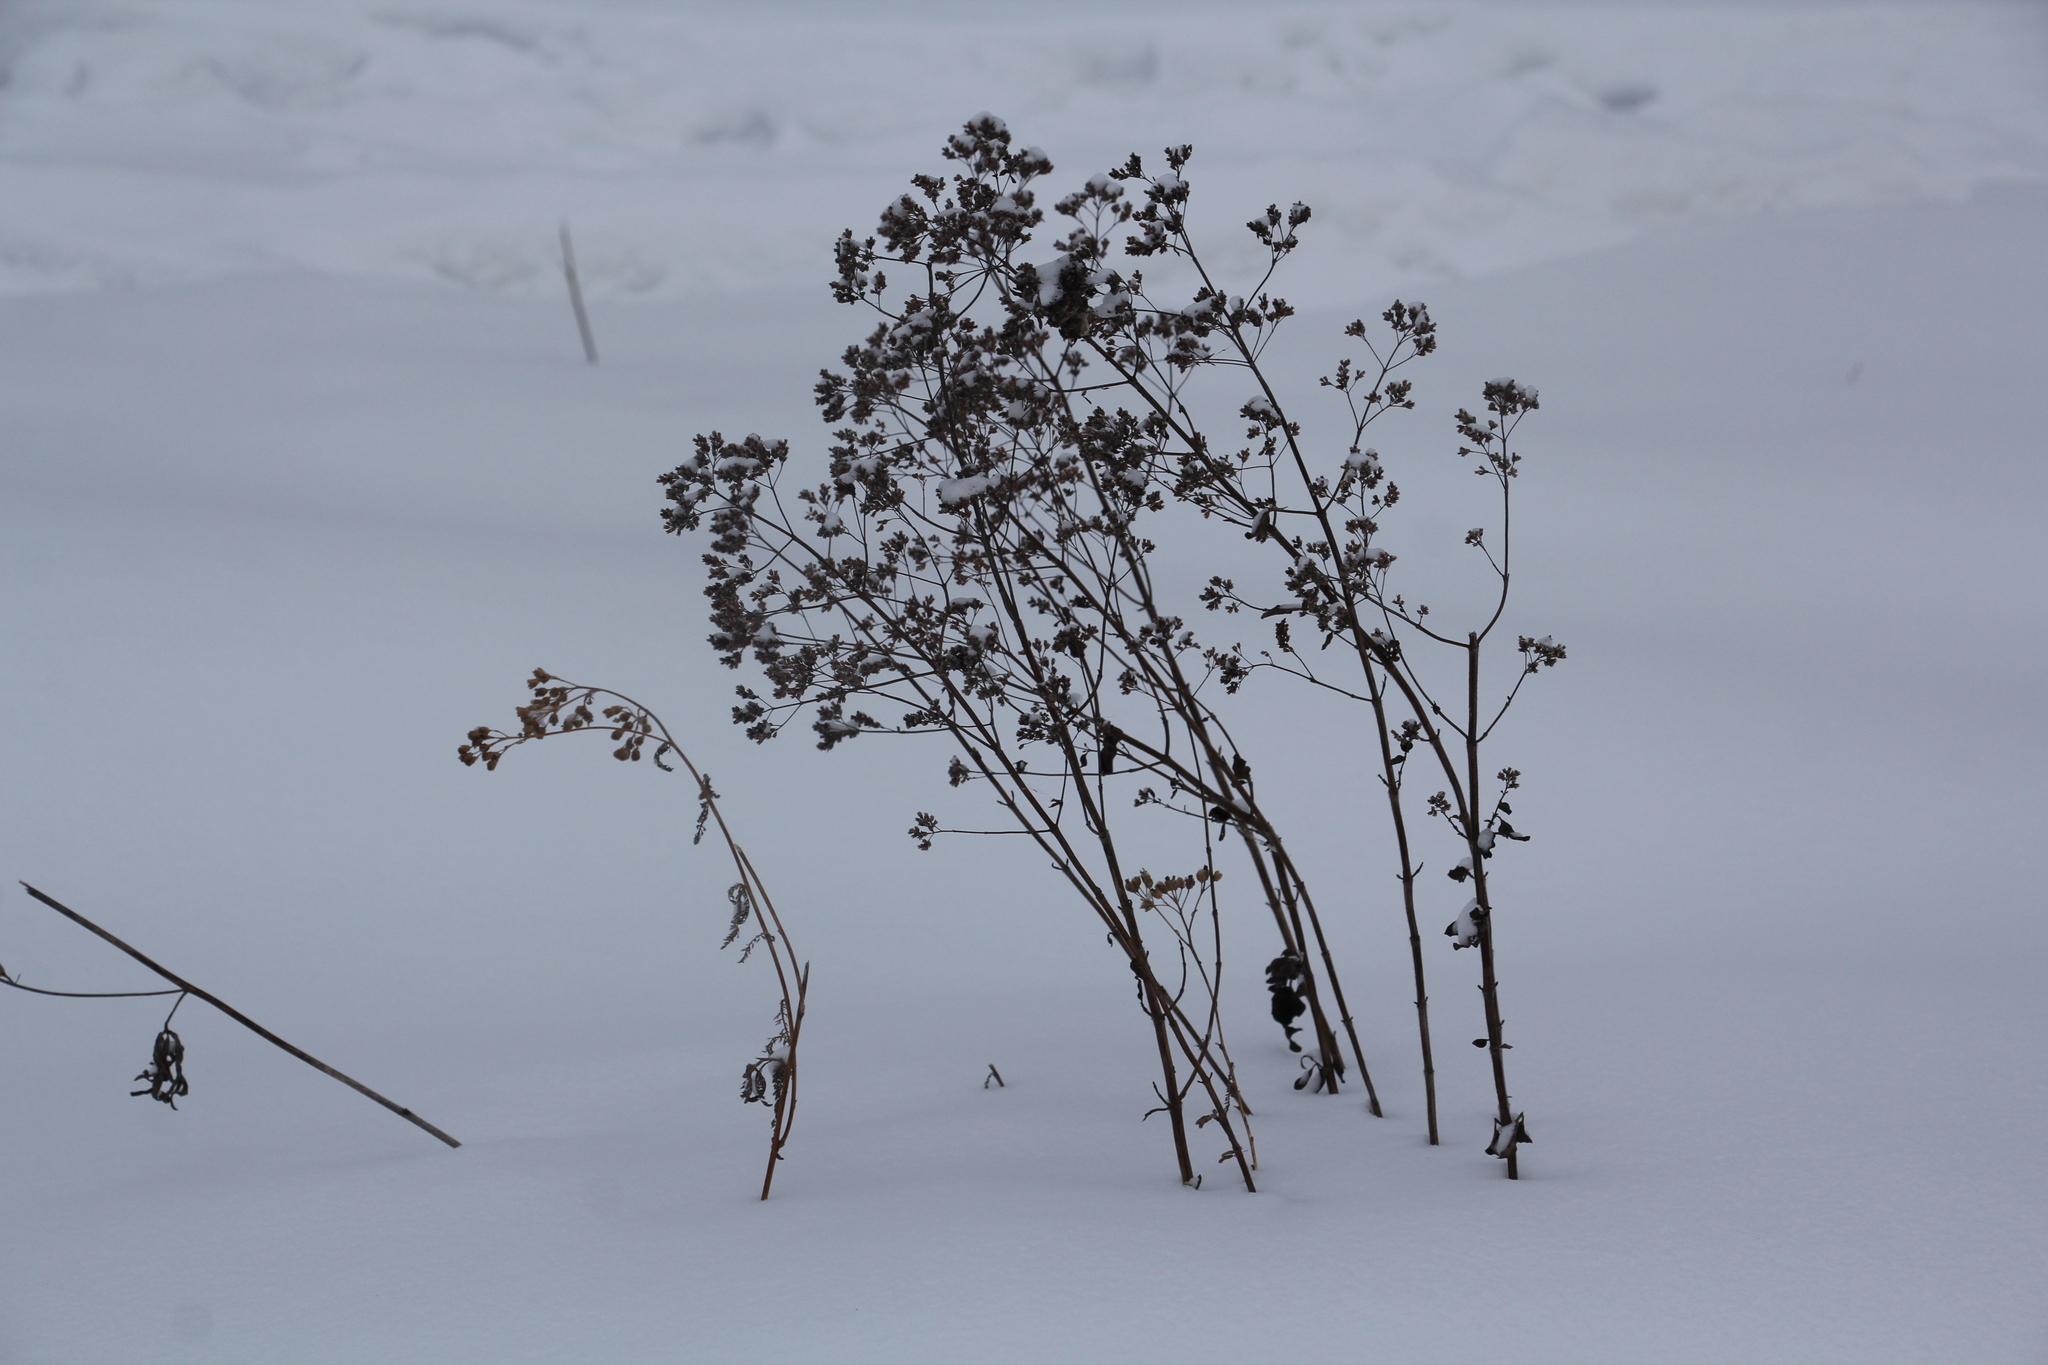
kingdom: Plantae
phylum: Tracheophyta
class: Magnoliopsida
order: Lamiales
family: Lamiaceae
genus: Origanum
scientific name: Origanum vulgare
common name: Wild marjoram
